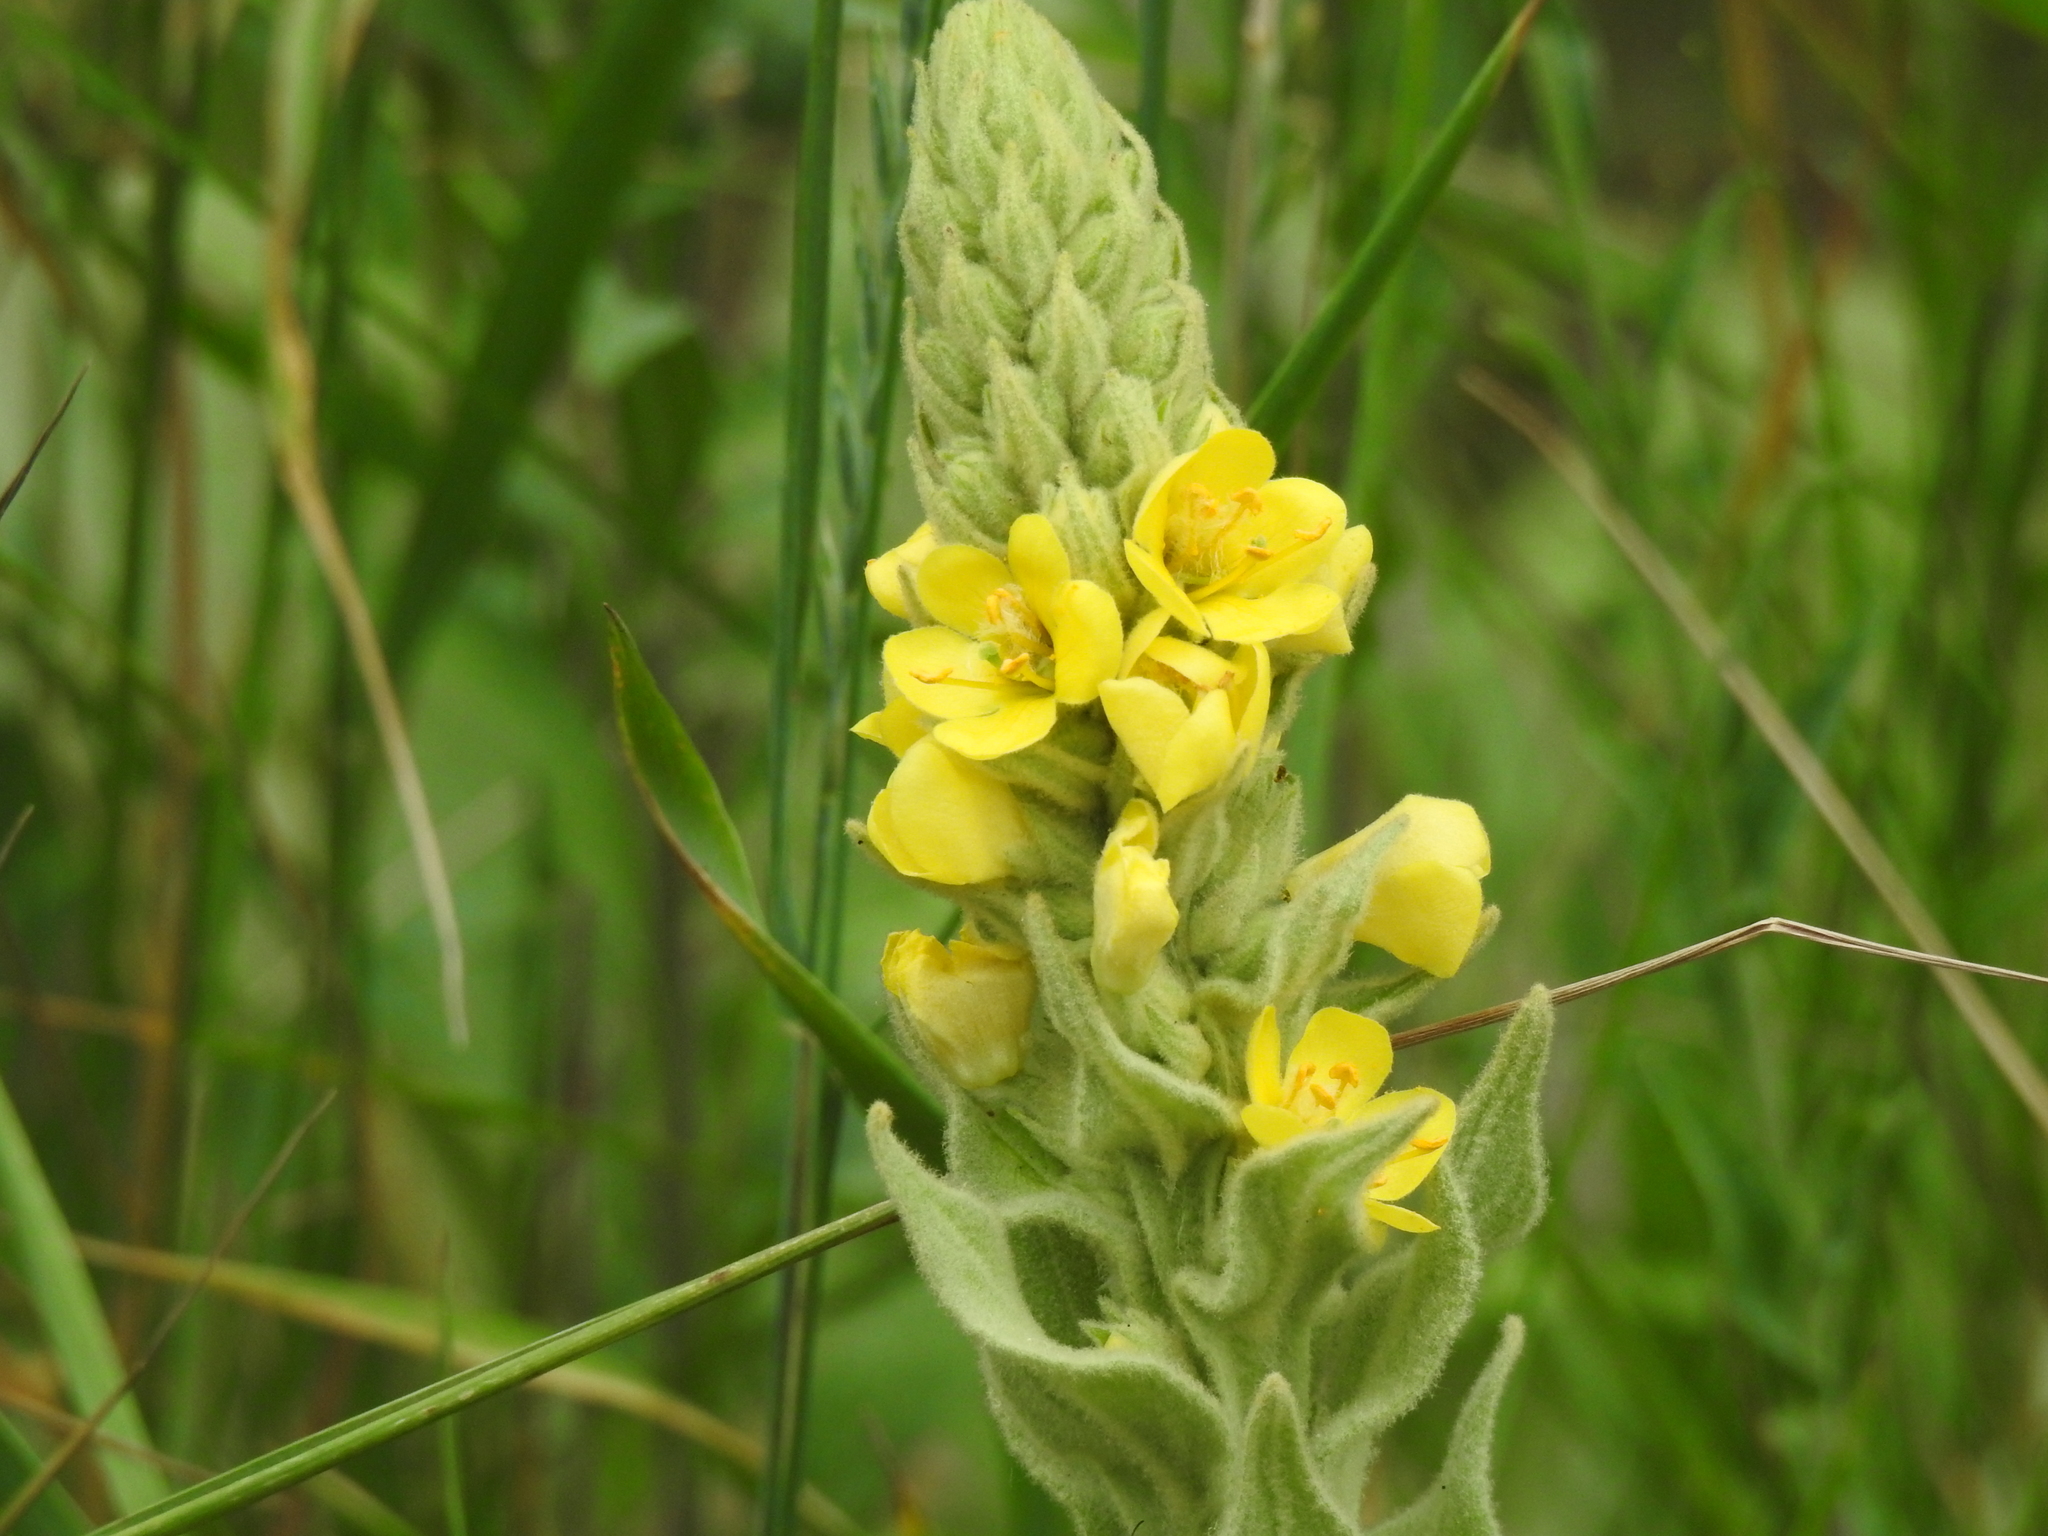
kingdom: Plantae
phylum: Tracheophyta
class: Magnoliopsida
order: Lamiales
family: Scrophulariaceae
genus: Verbascum
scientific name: Verbascum thapsus
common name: Common mullein
